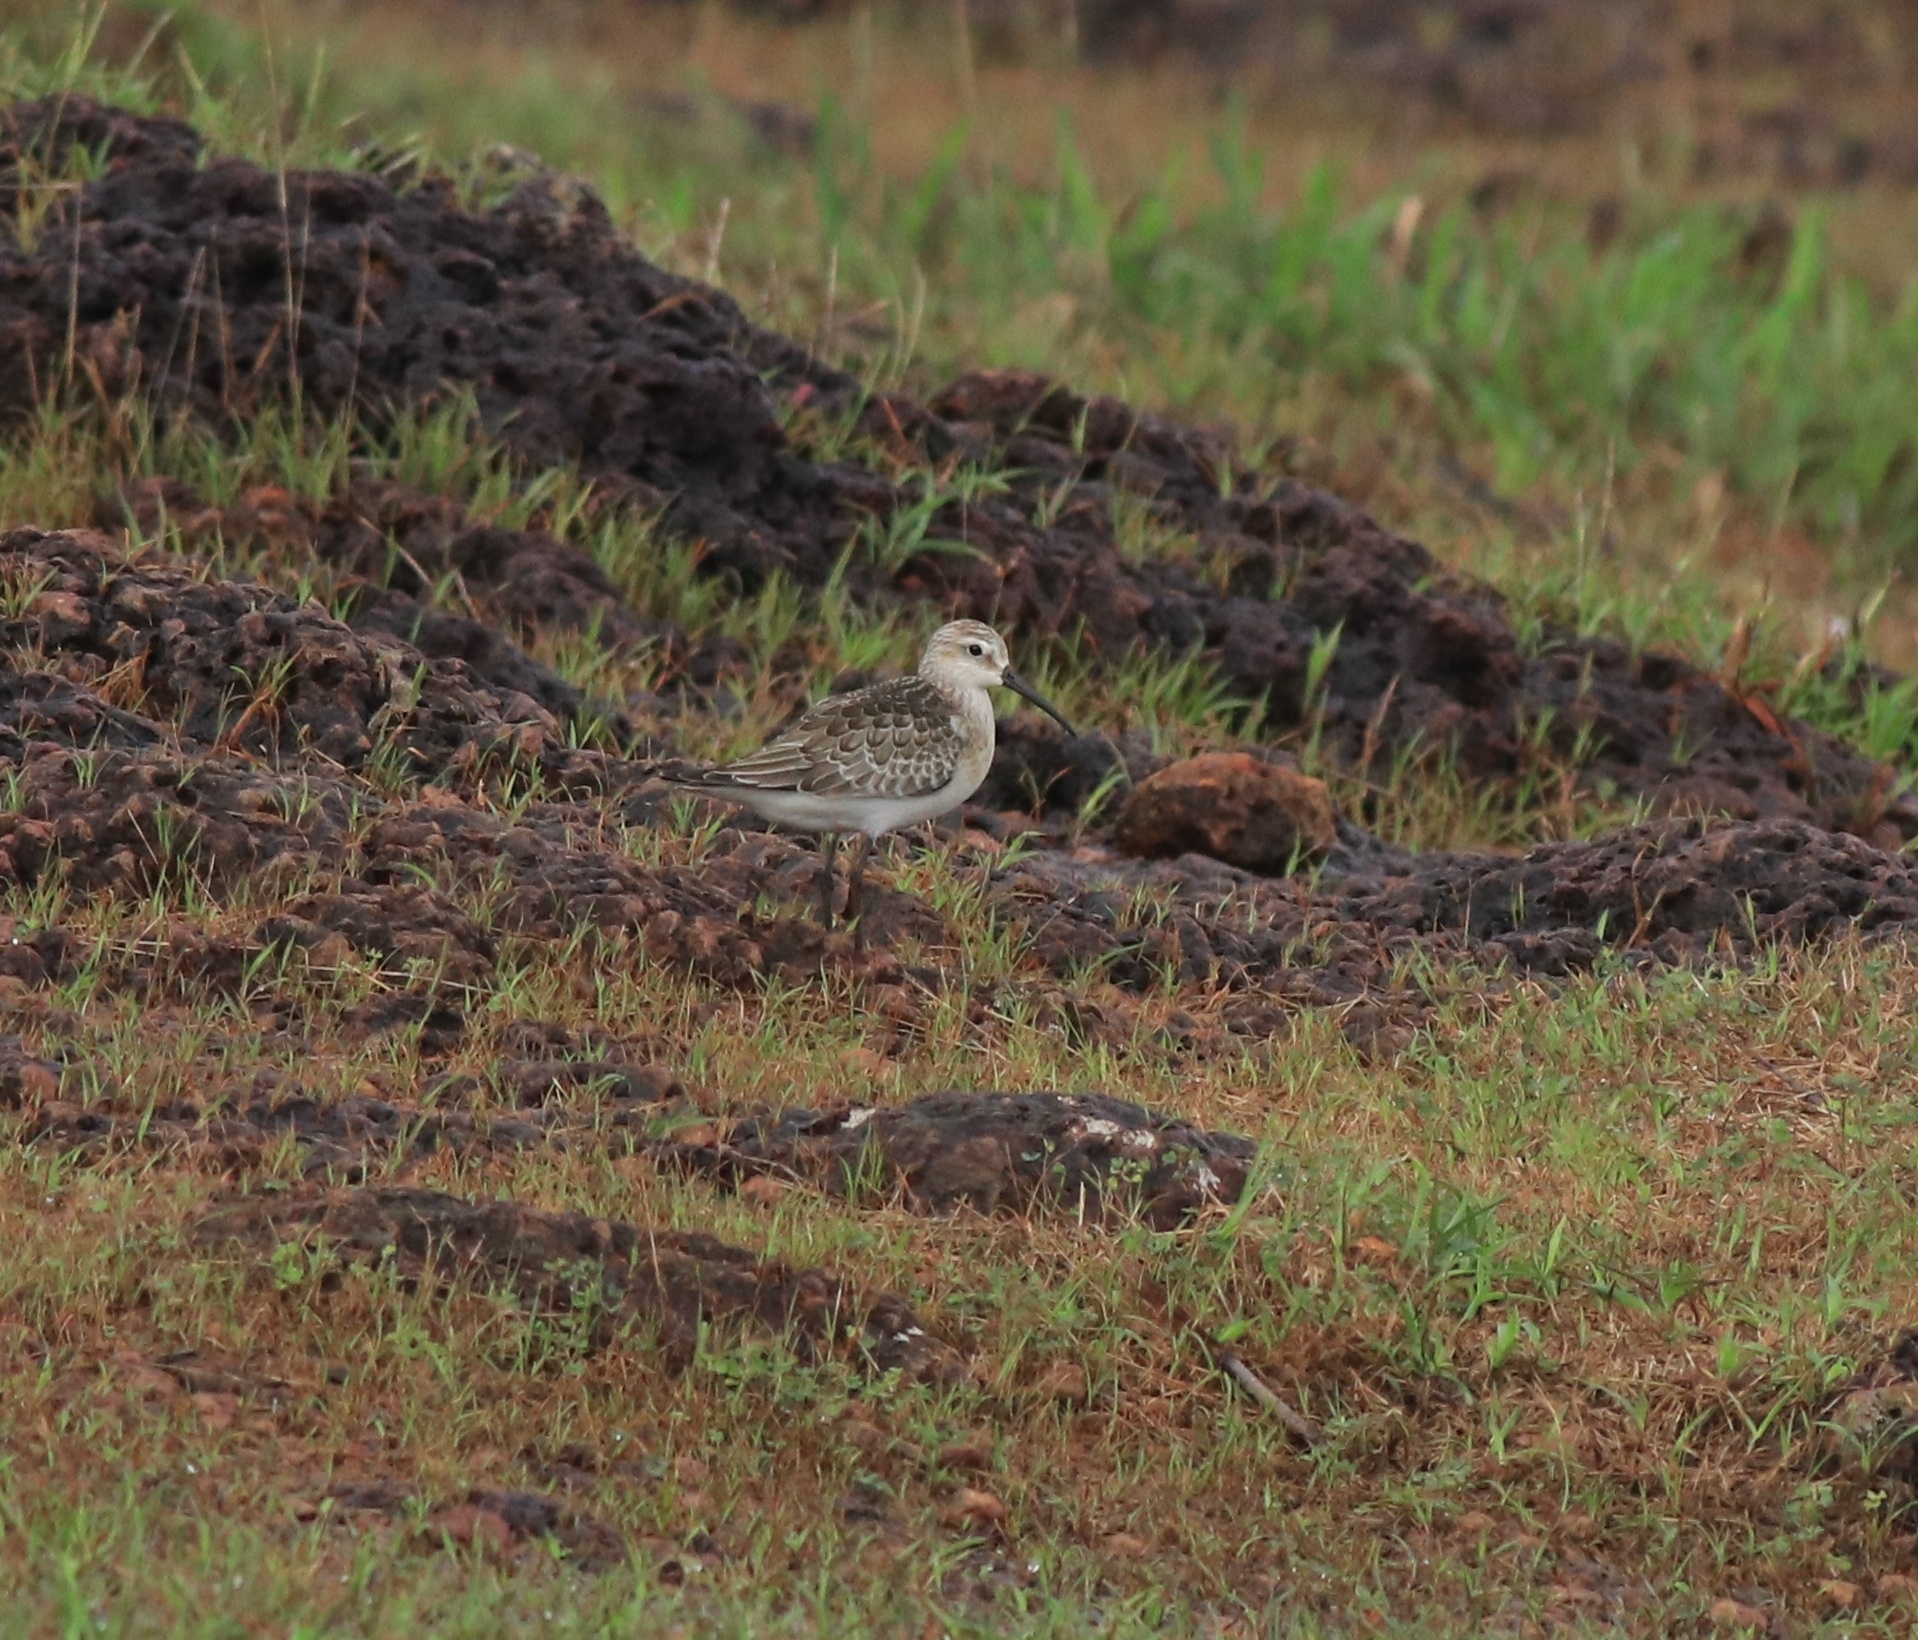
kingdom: Animalia
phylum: Chordata
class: Aves
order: Charadriiformes
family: Scolopacidae
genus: Calidris
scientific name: Calidris ferruginea
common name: Curlew sandpiper
